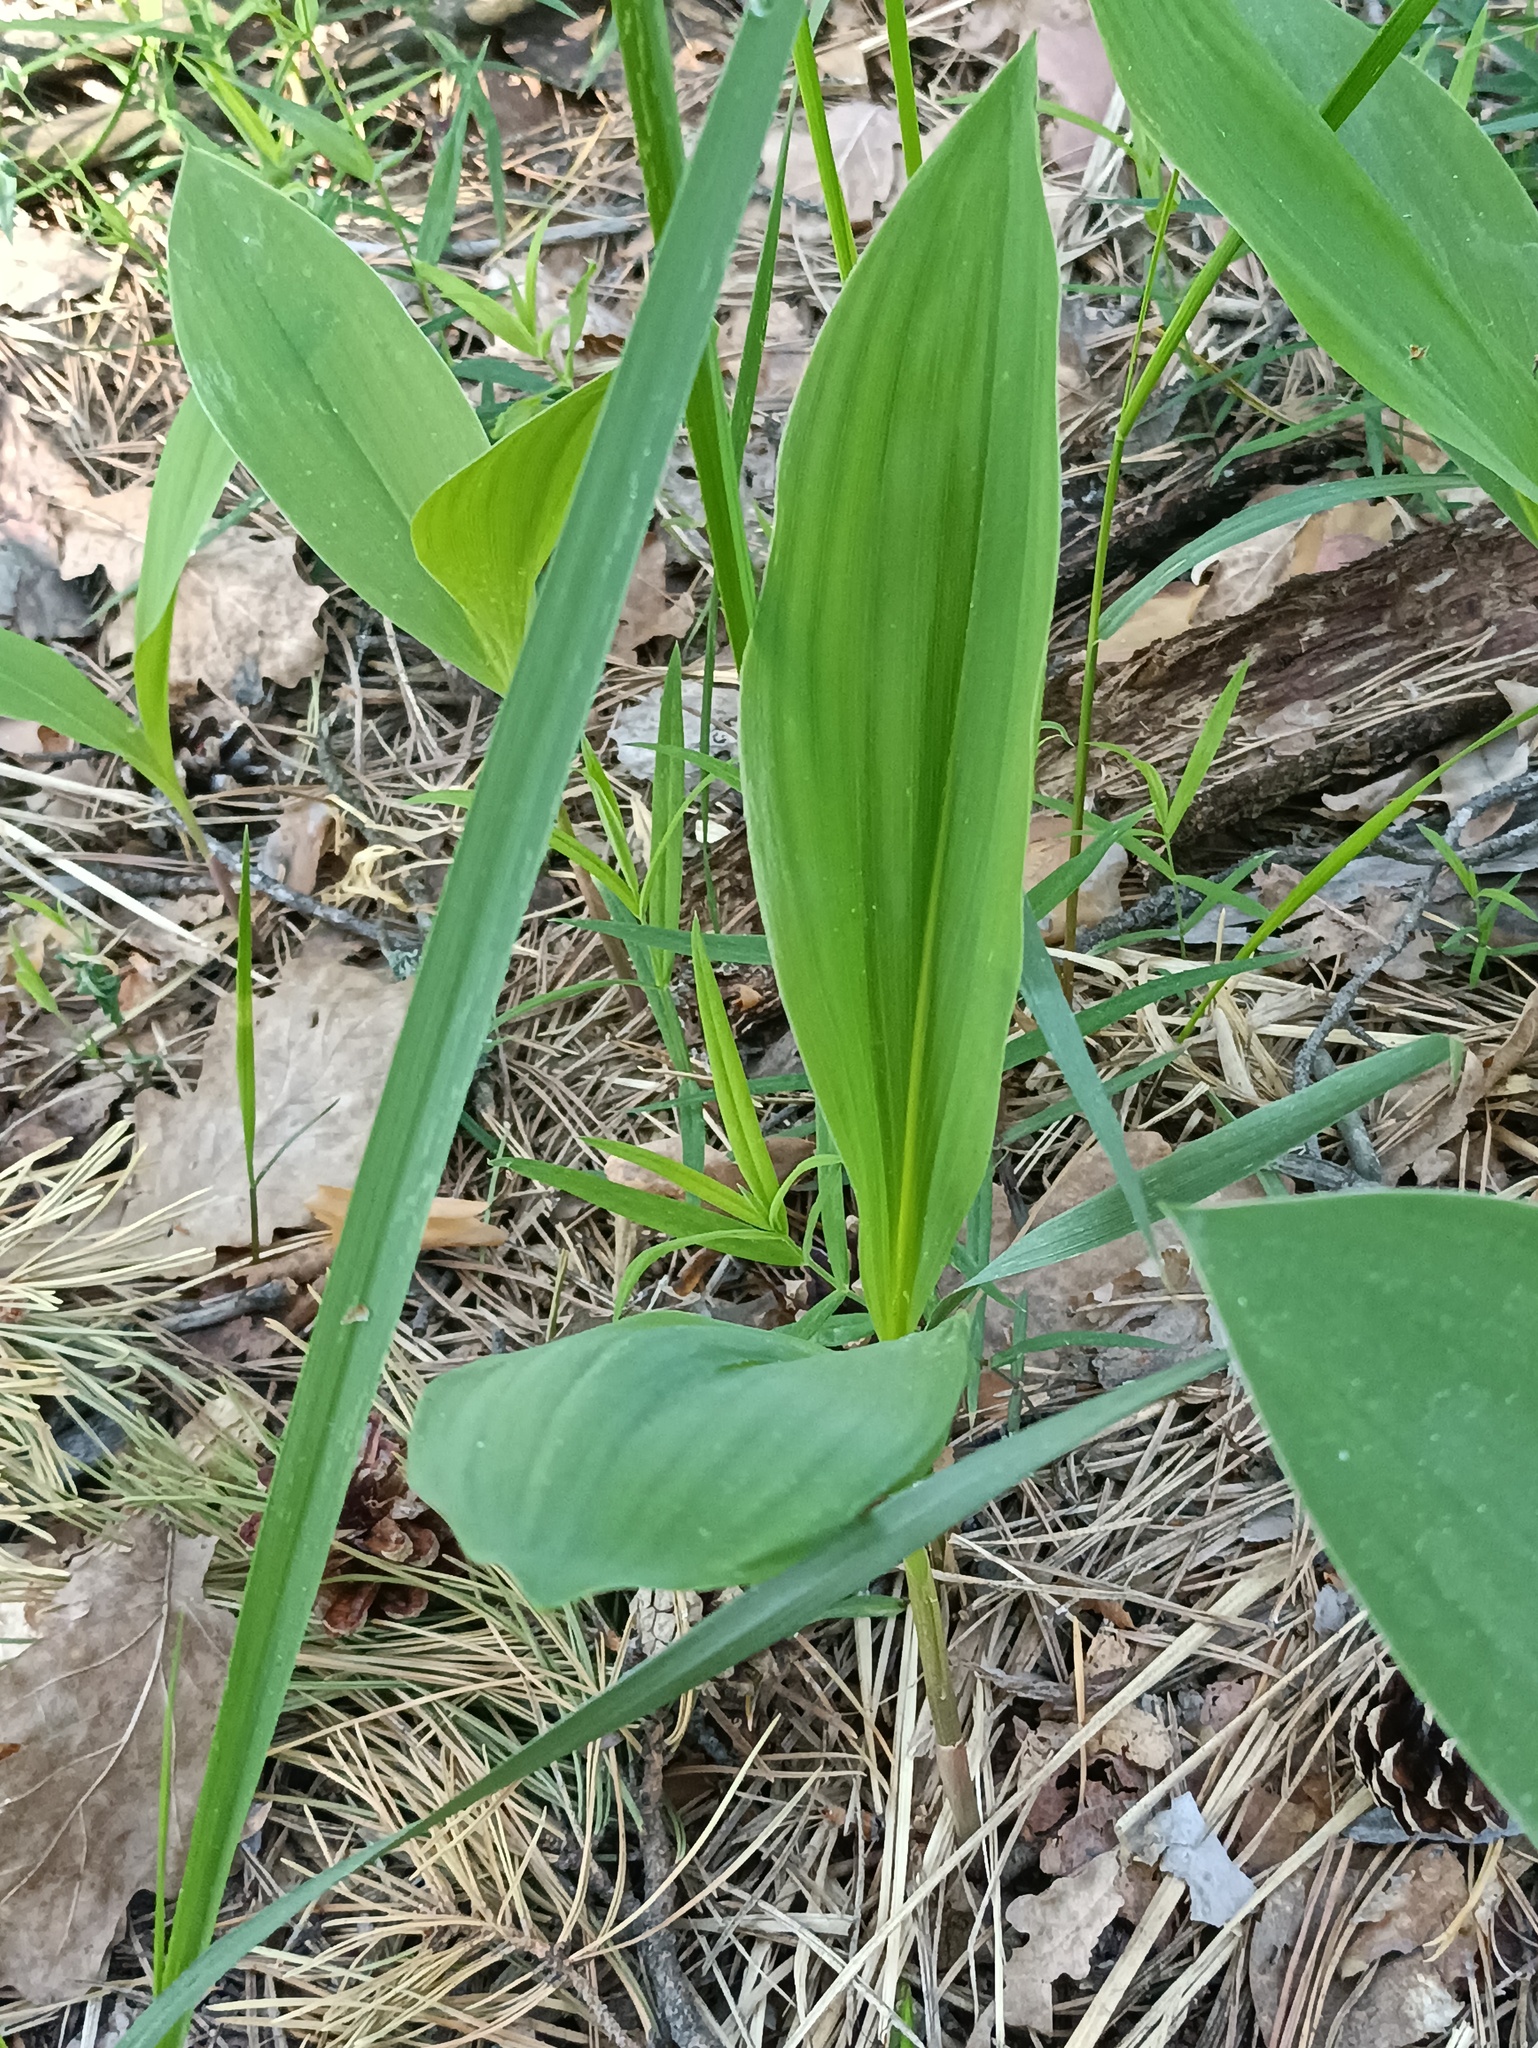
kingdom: Plantae
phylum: Tracheophyta
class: Liliopsida
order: Asparagales
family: Asparagaceae
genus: Convallaria
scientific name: Convallaria majalis
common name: Lily-of-the-valley
